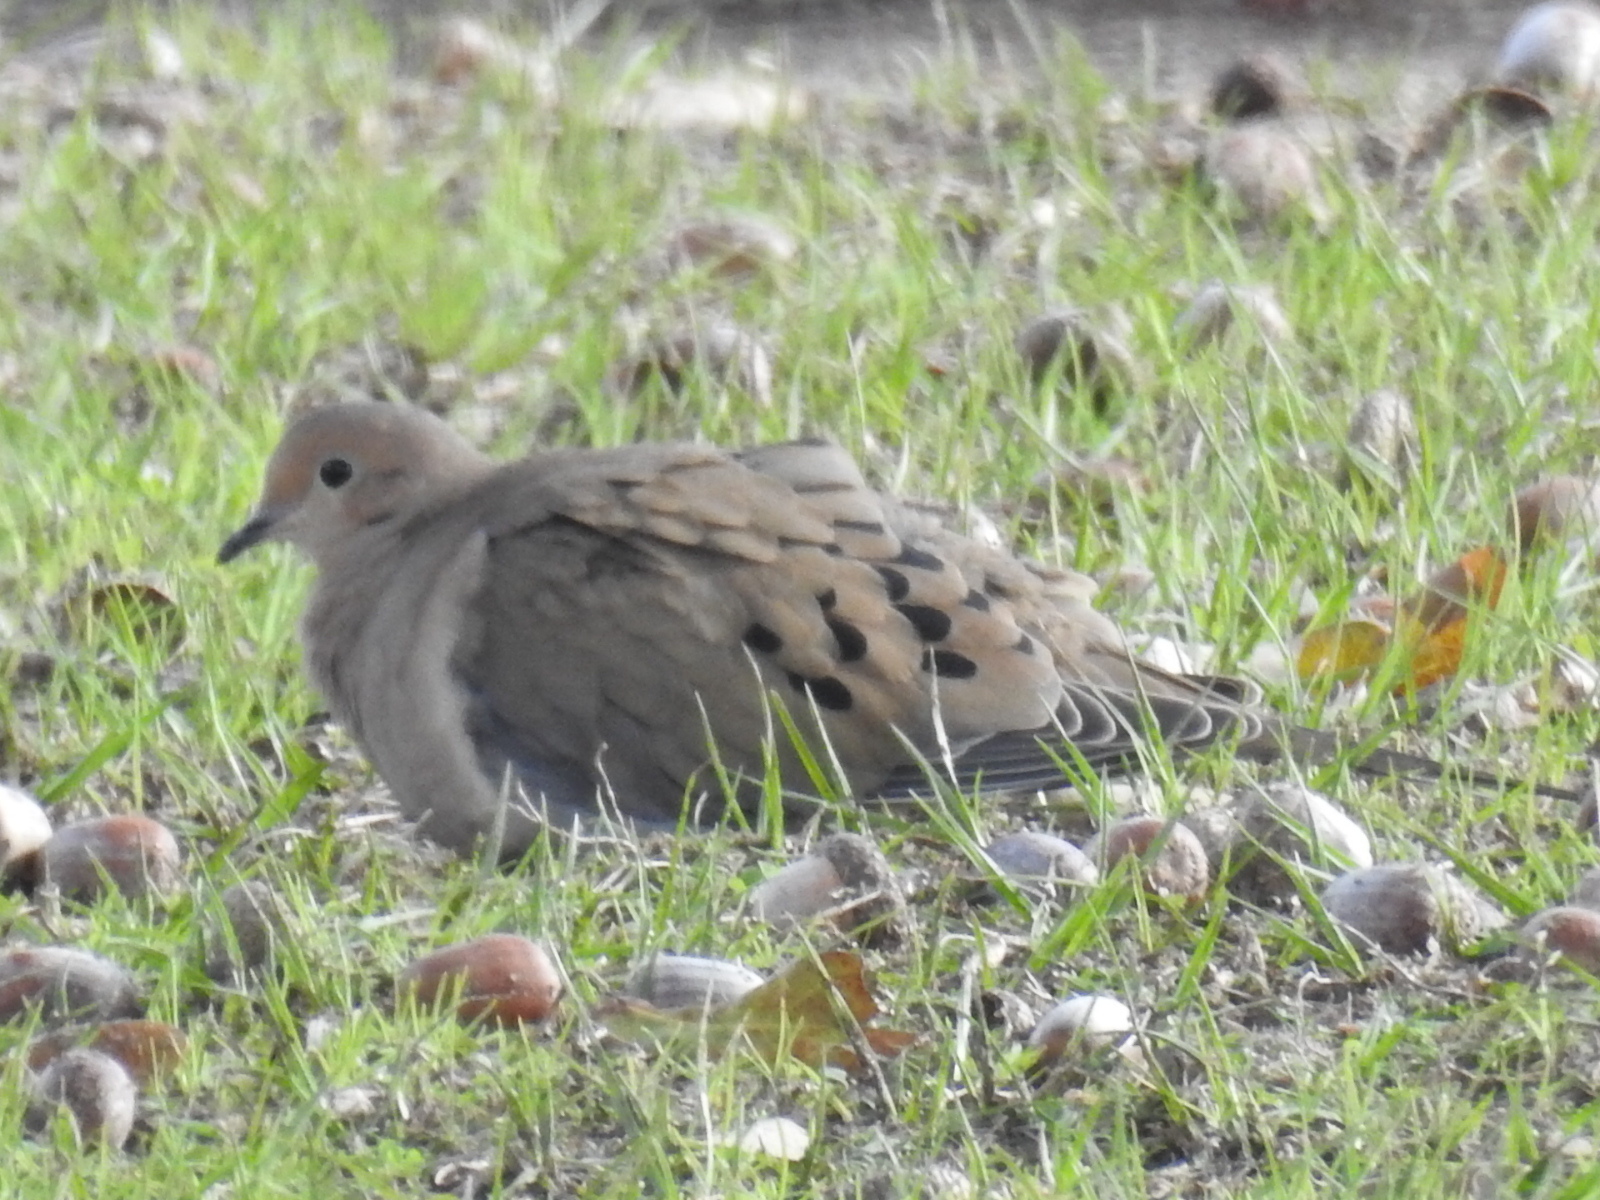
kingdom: Animalia
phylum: Chordata
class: Aves
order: Columbiformes
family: Columbidae
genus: Zenaida
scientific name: Zenaida macroura
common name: Mourning dove
